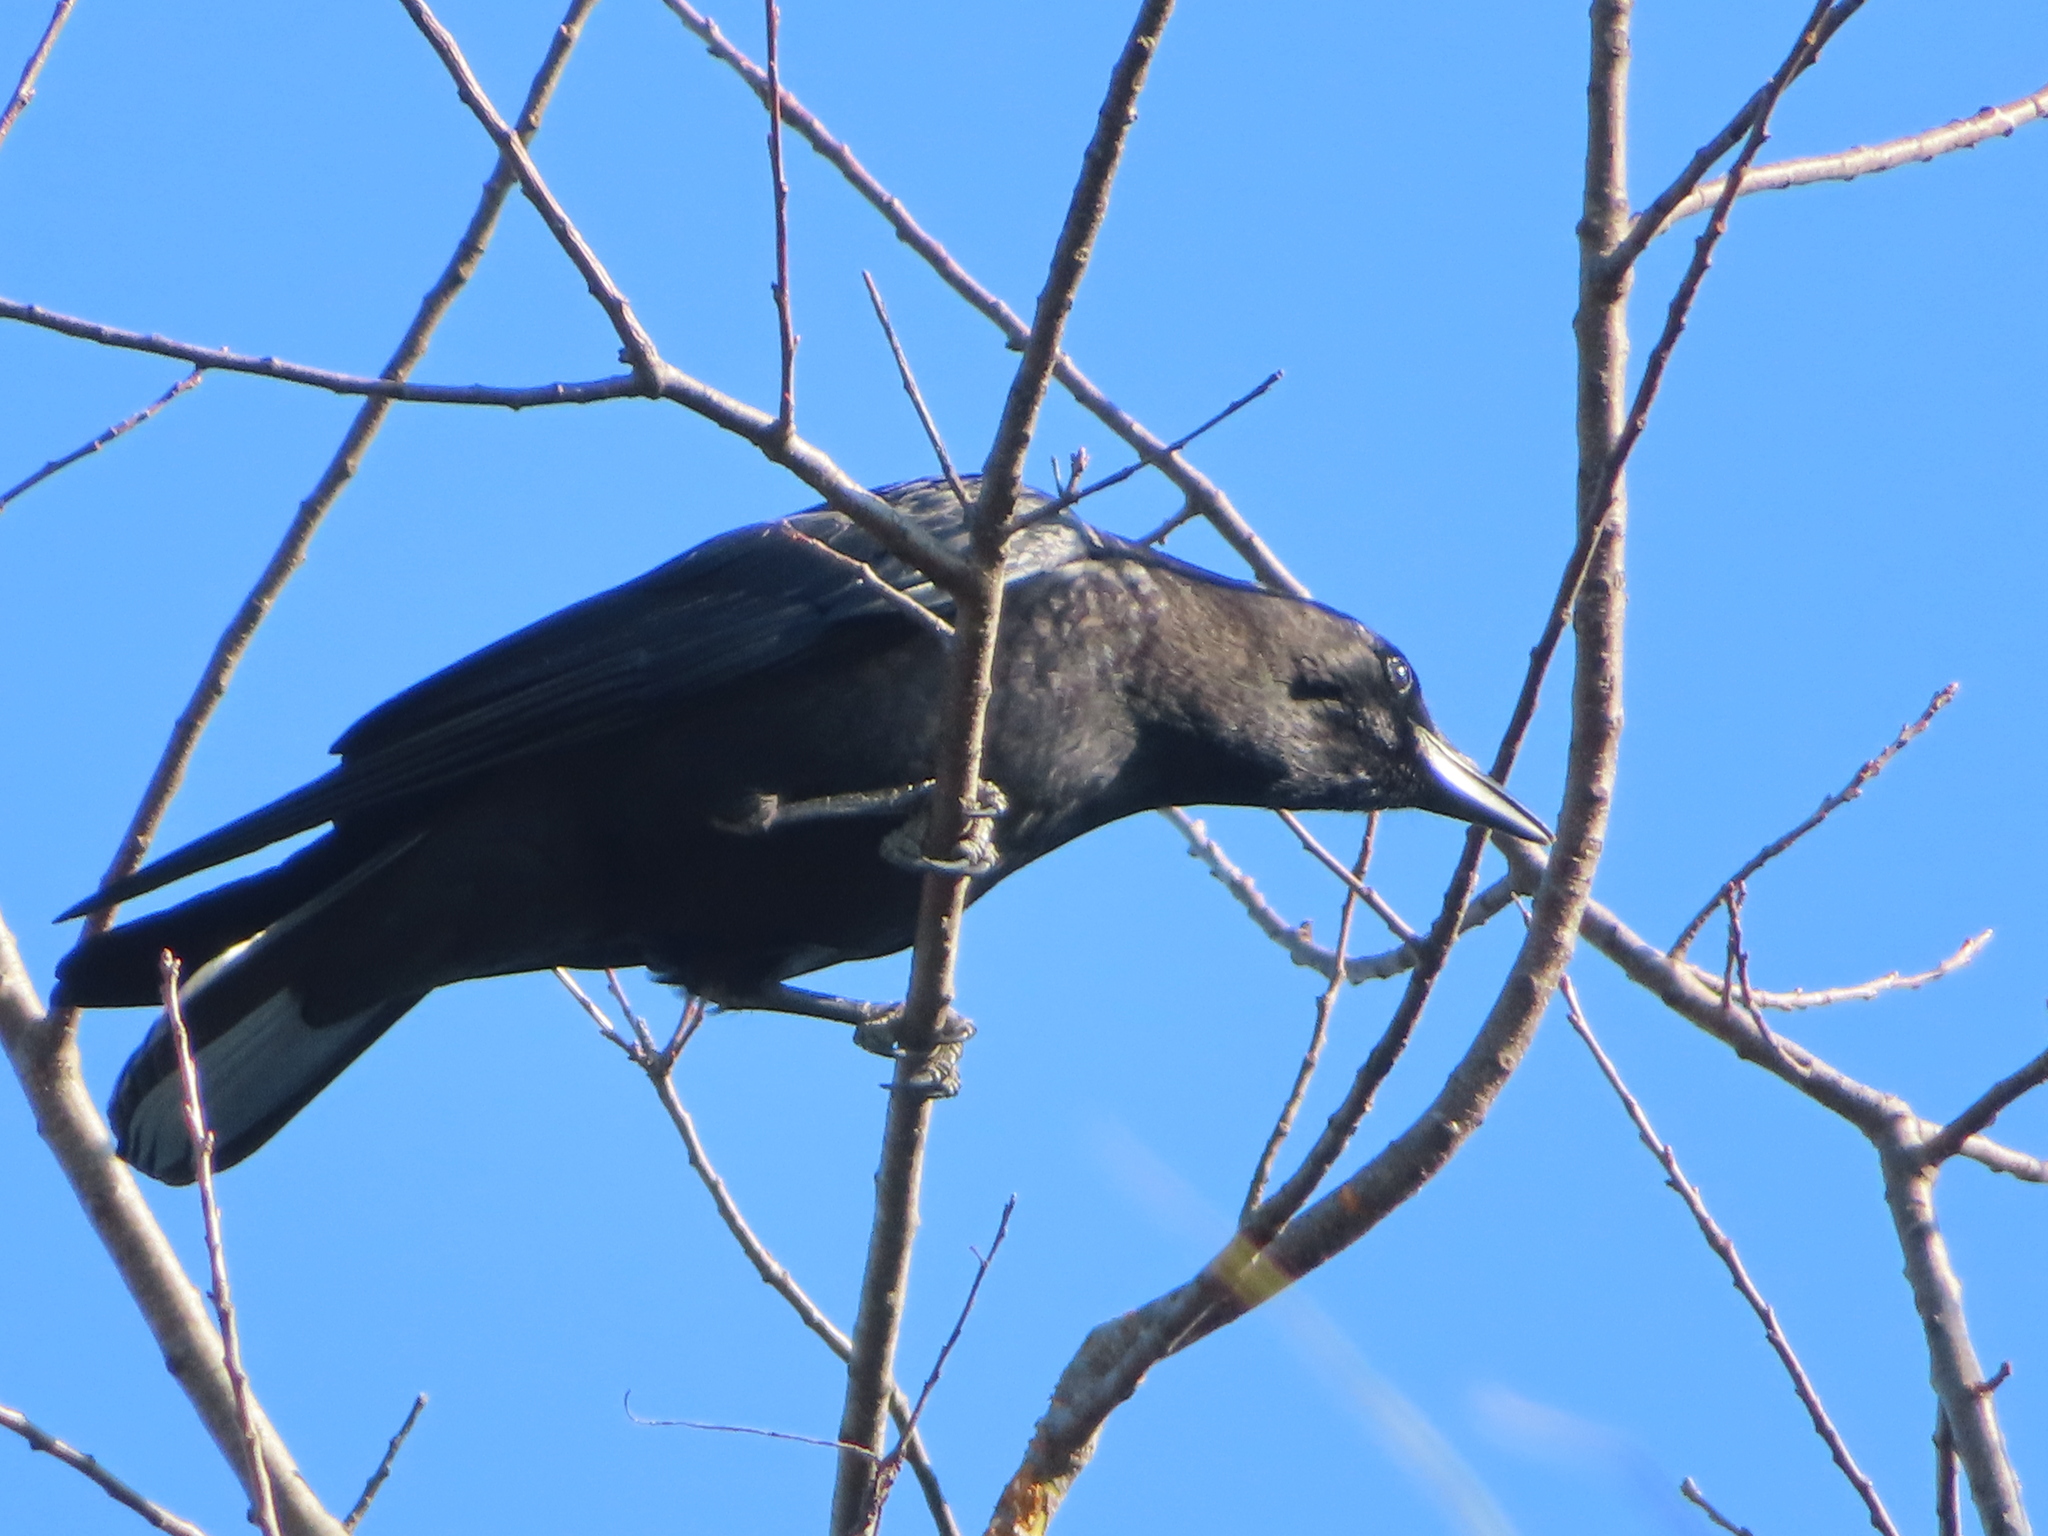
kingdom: Animalia
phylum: Chordata
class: Aves
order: Passeriformes
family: Corvidae
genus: Corvus
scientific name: Corvus brachyrhynchos
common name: American crow
